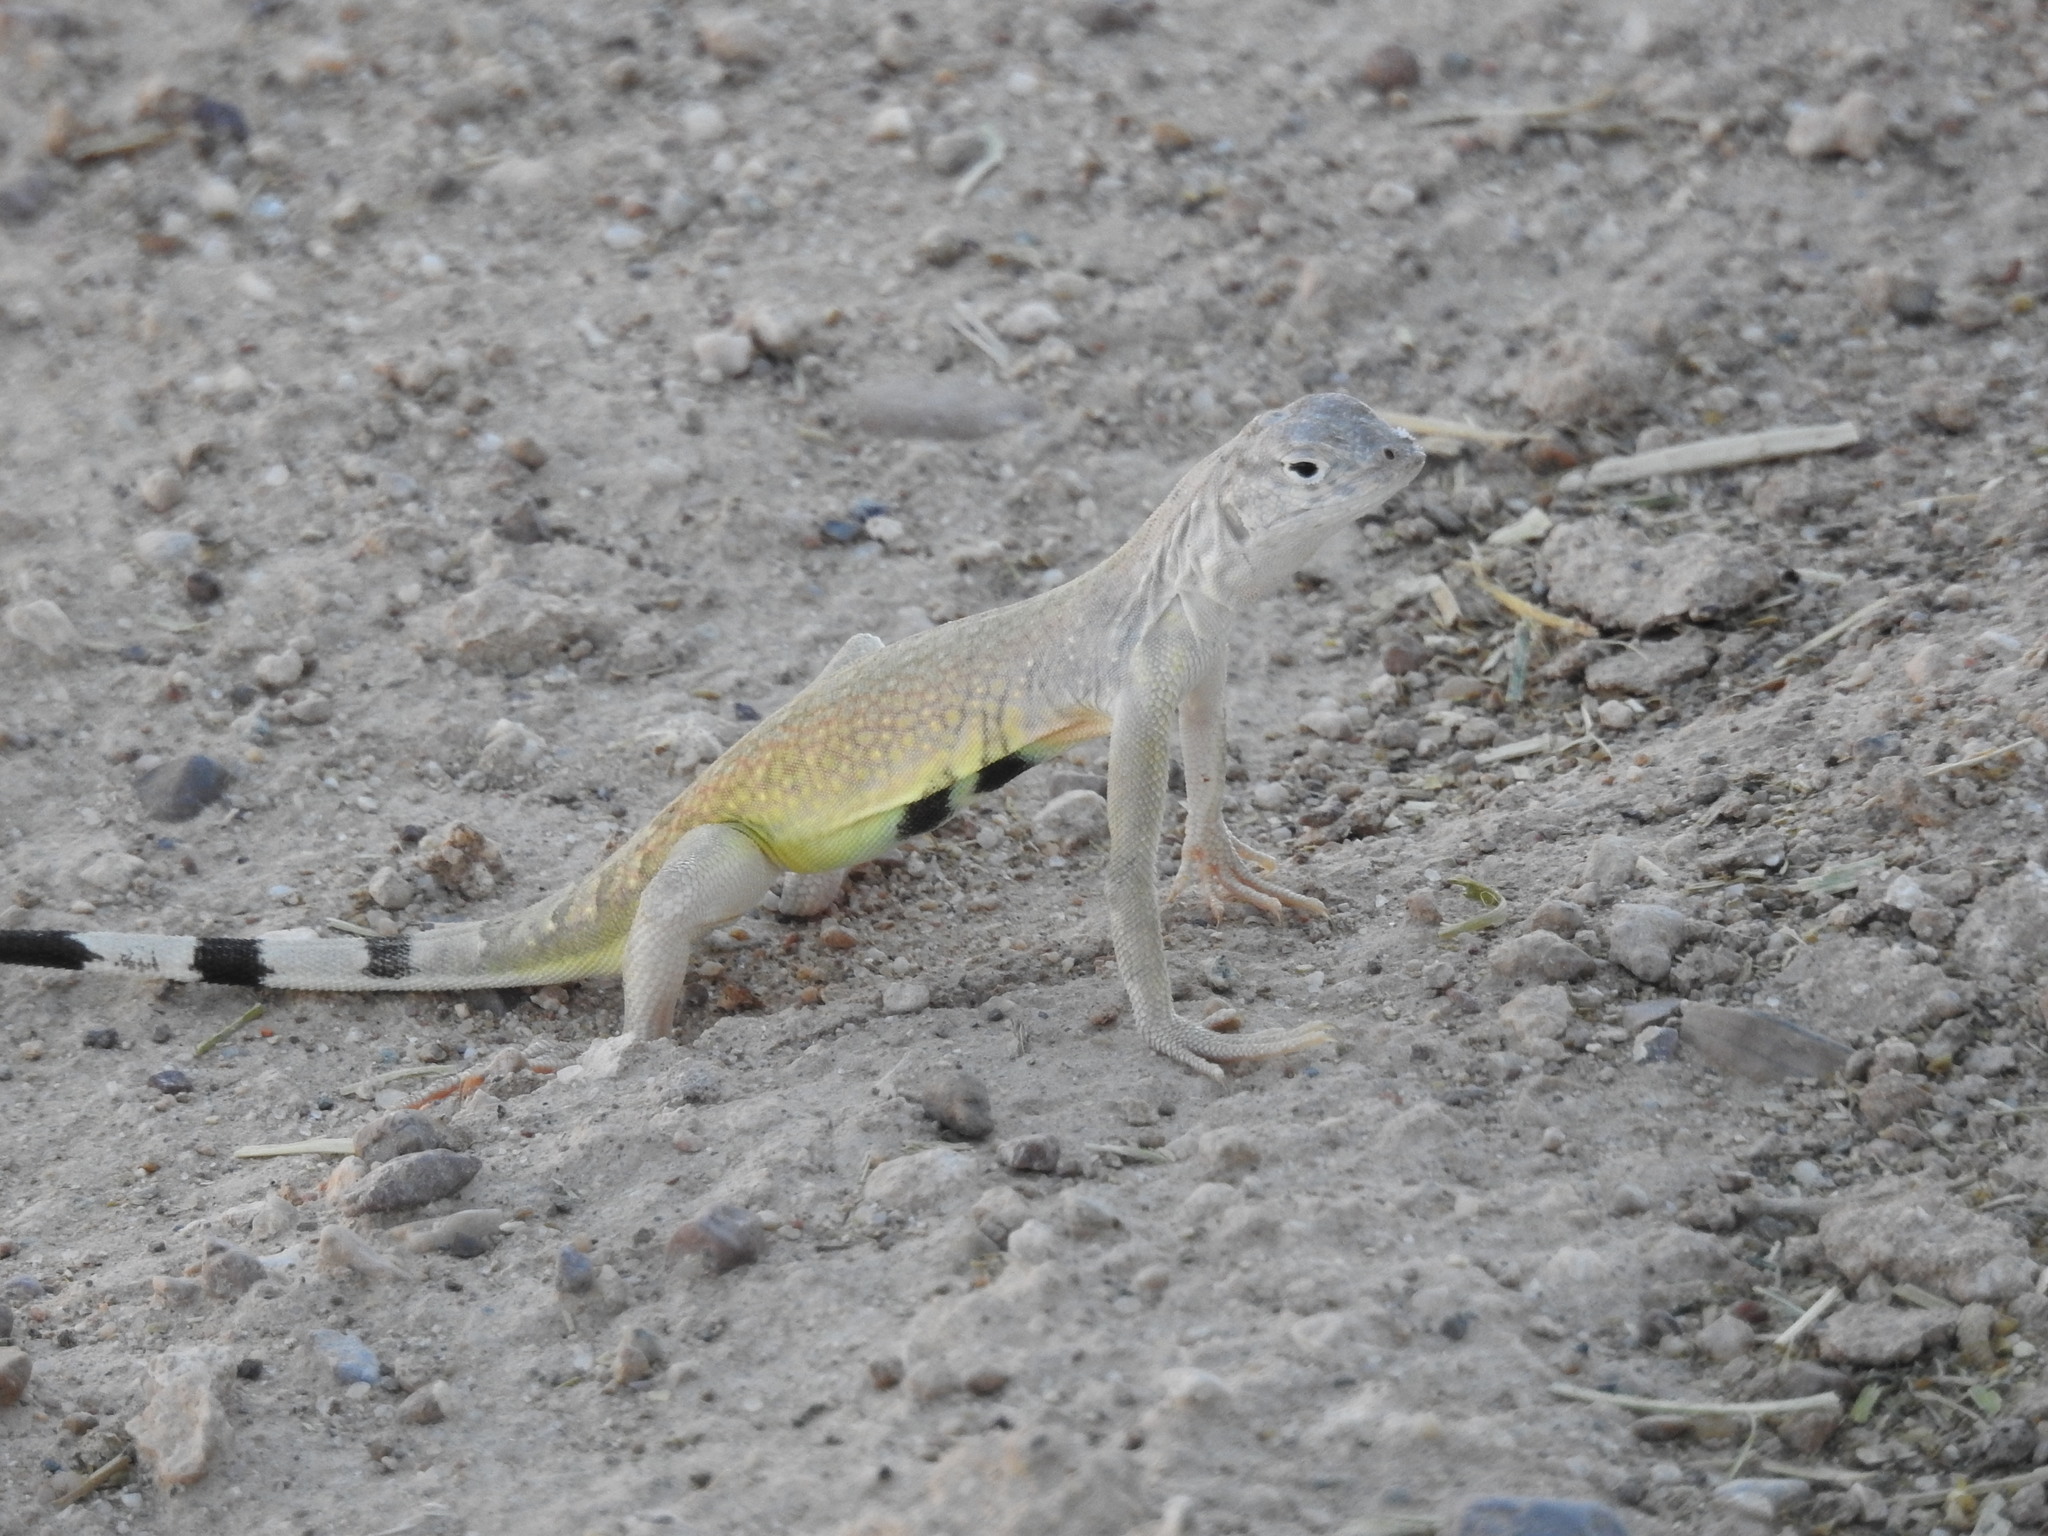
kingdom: Animalia
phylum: Chordata
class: Squamata
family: Phrynosomatidae
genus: Callisaurus
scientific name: Callisaurus draconoides
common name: Zebra-tailed lizard
